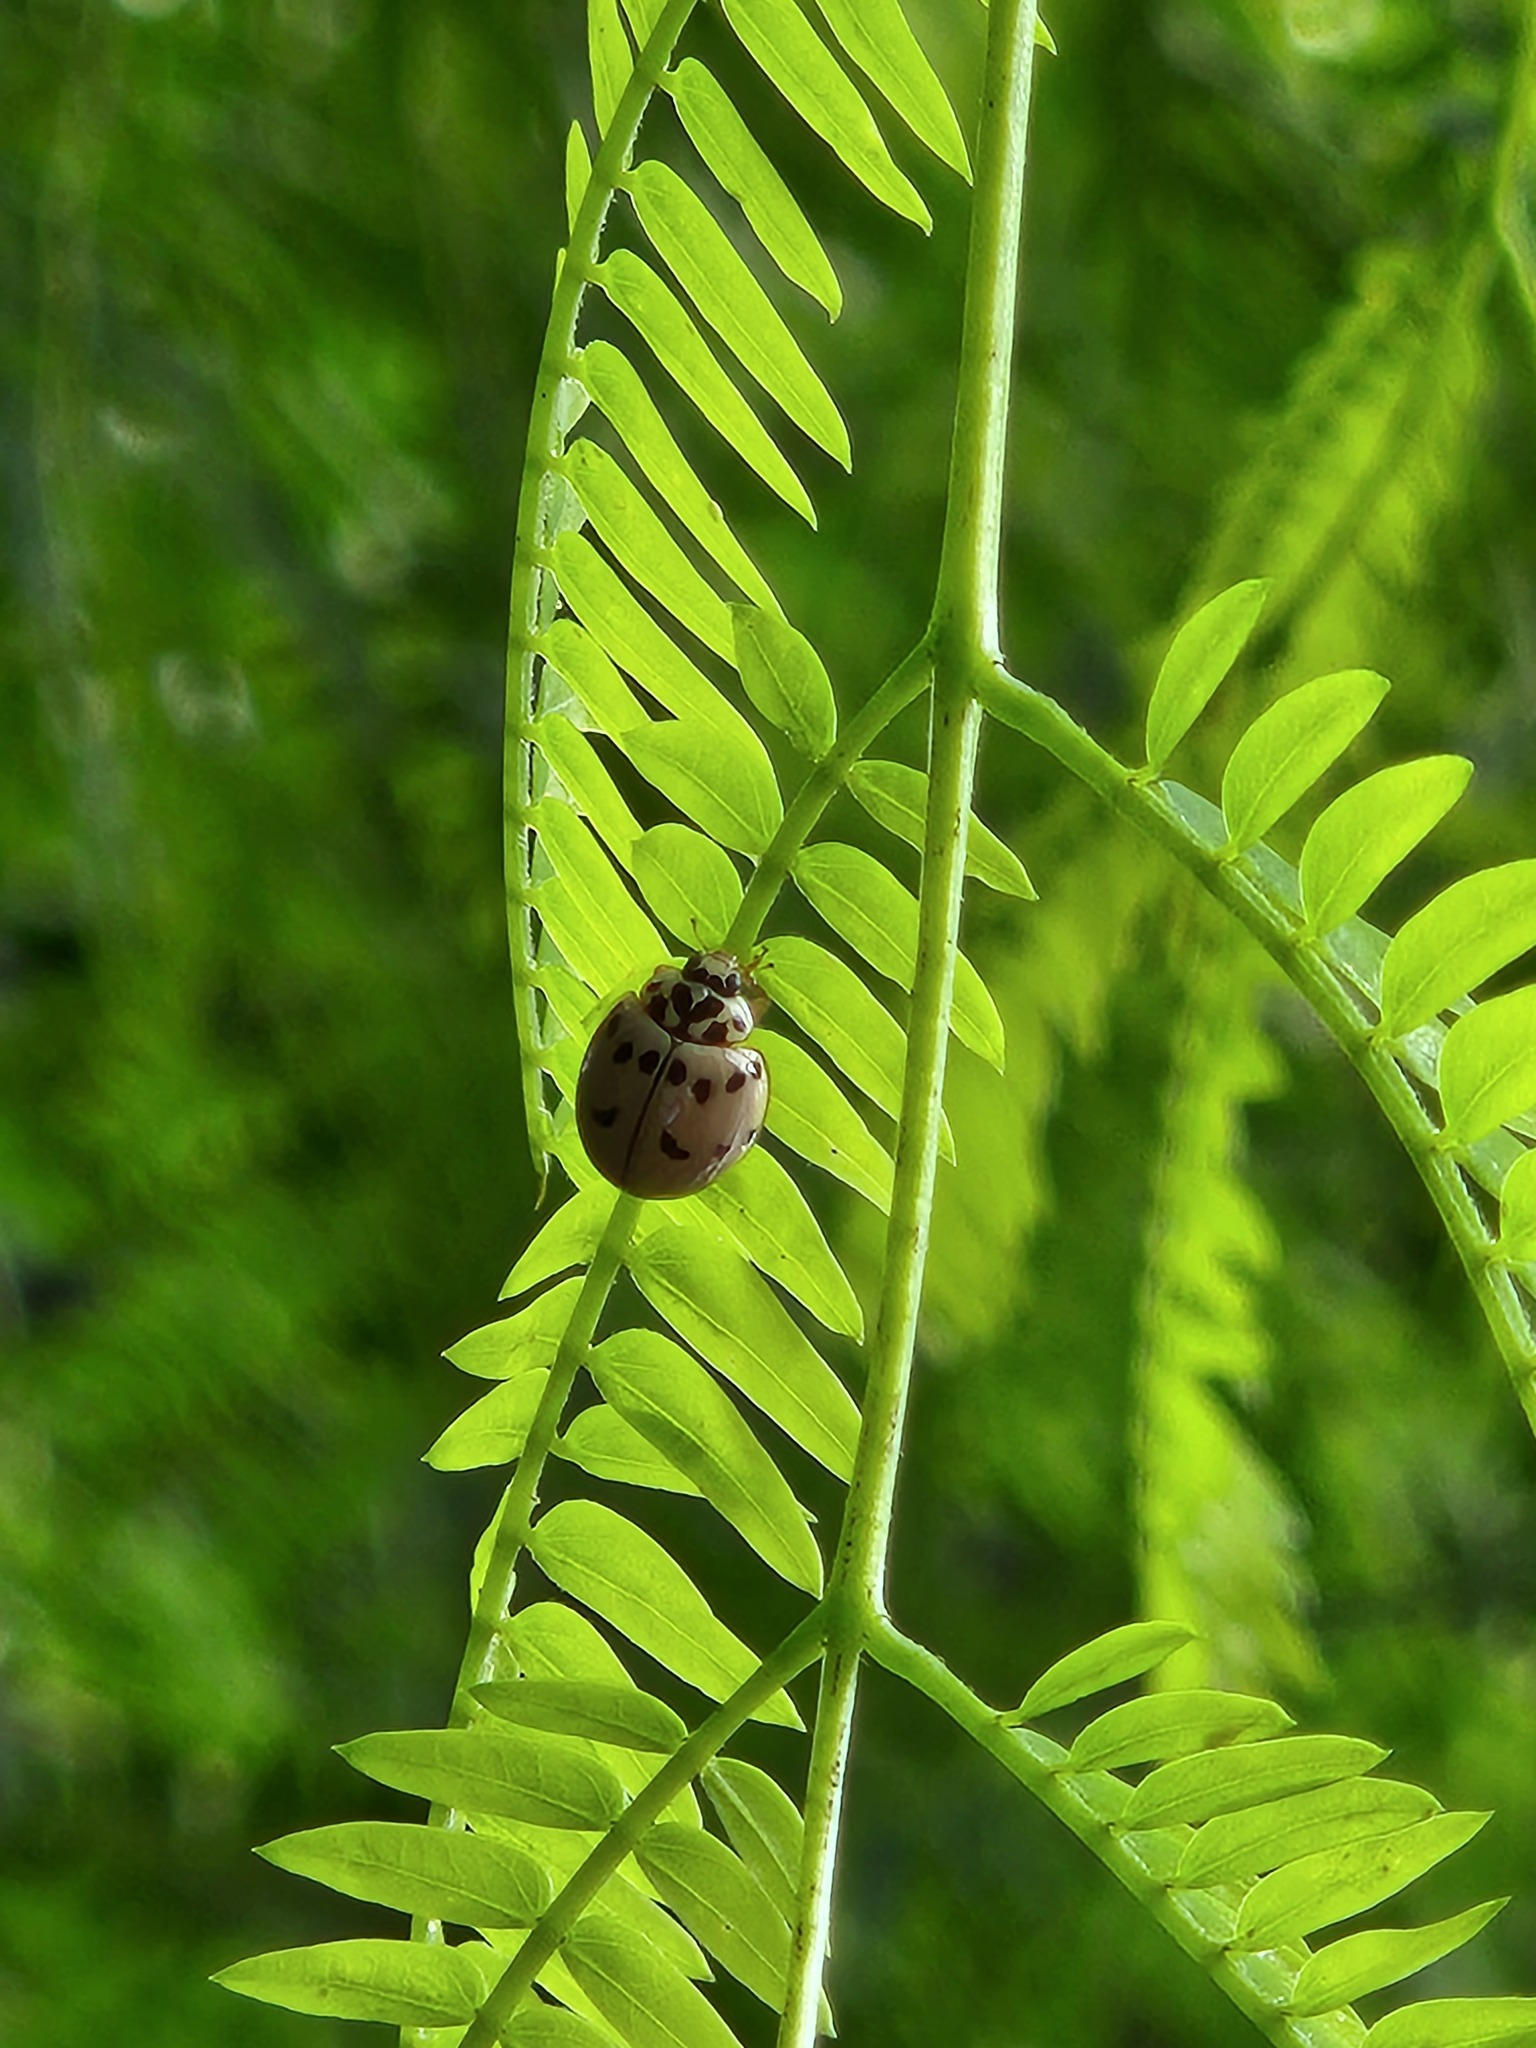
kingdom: Animalia
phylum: Arthropoda
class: Insecta
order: Coleoptera
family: Coccinellidae
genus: Olla
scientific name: Olla v-nigrum
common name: Ashy gray lady beetle
